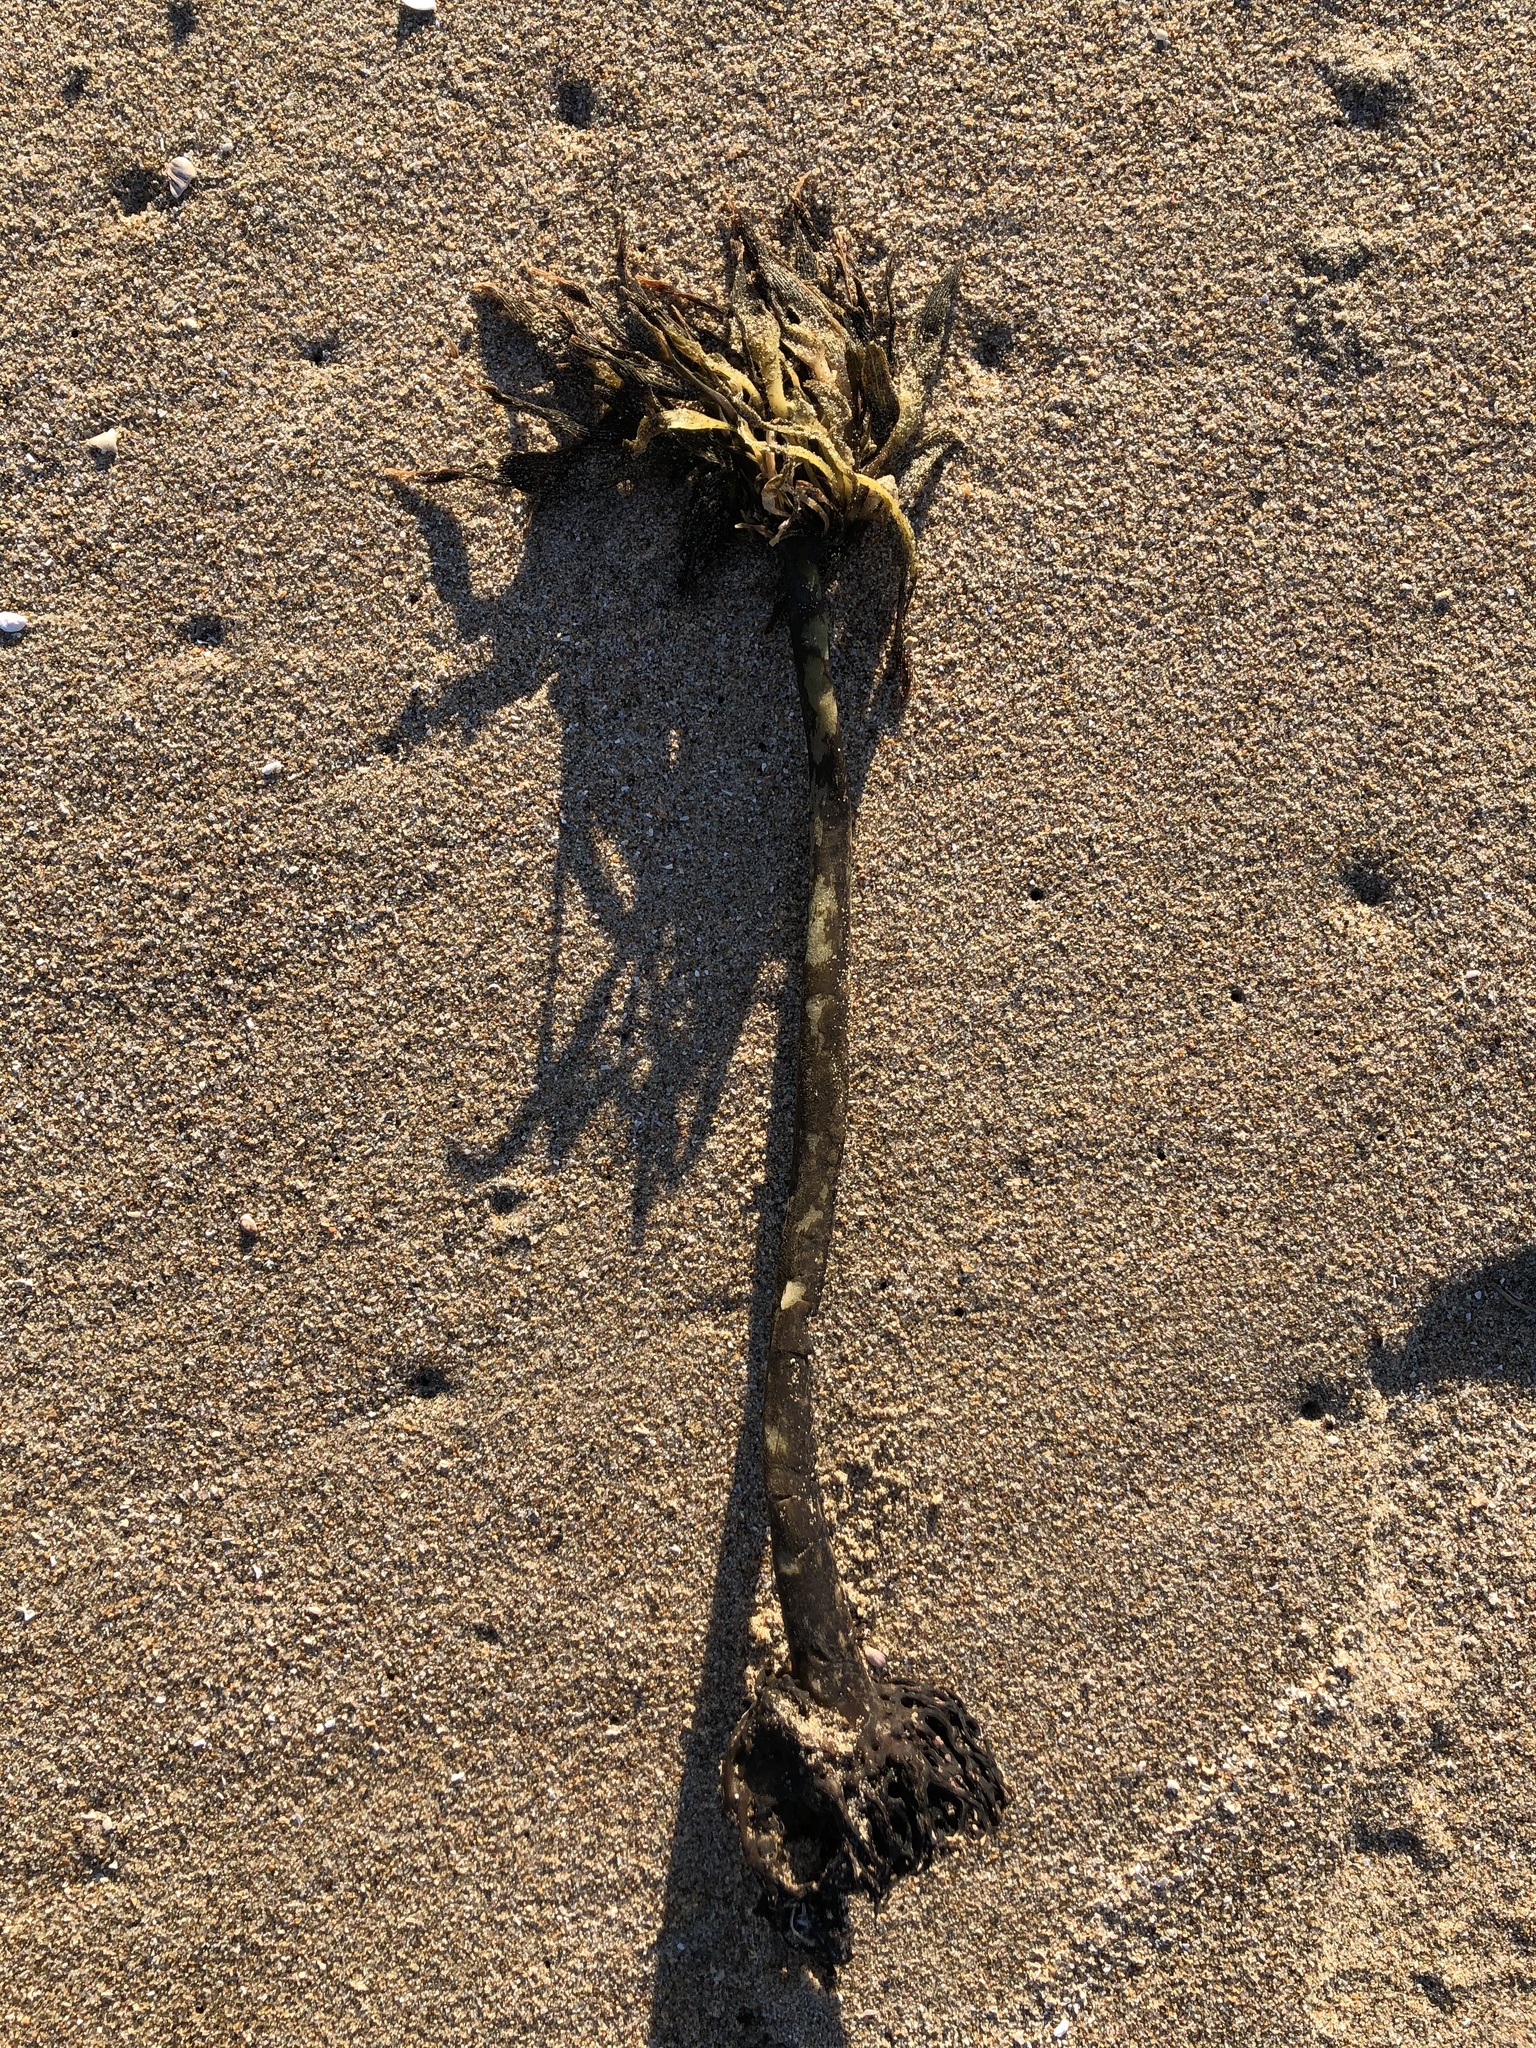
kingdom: Chromista
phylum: Ochrophyta
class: Phaeophyceae
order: Laminariales
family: Laminariaceae
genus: Postelsia
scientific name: Postelsia palmiformis
